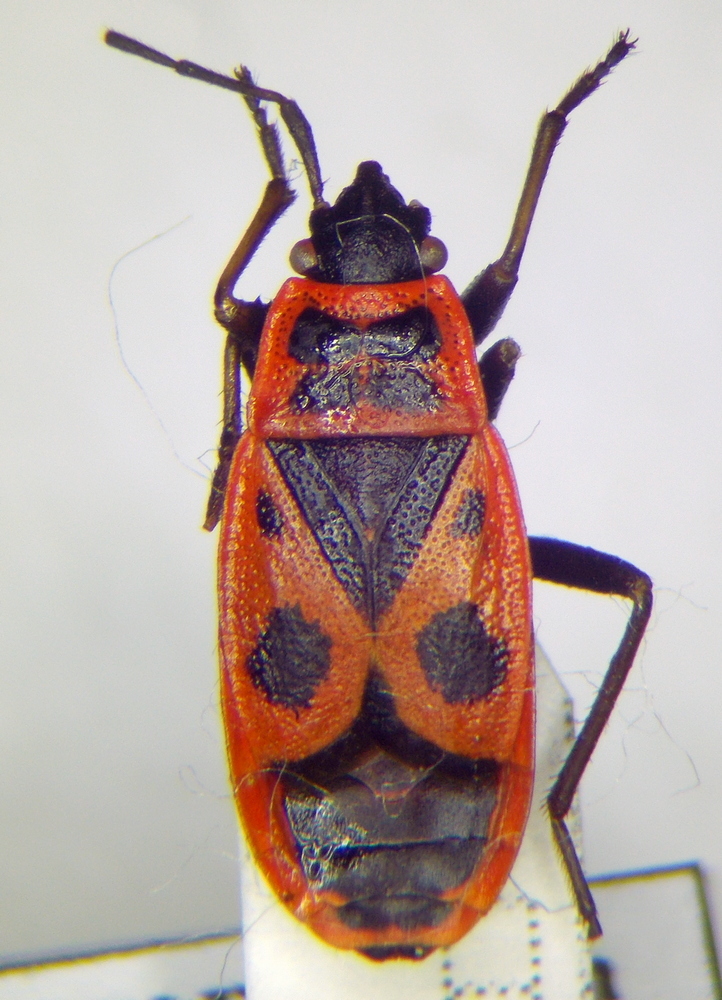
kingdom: Animalia
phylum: Arthropoda
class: Insecta
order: Hemiptera
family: Pyrrhocoridae
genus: Pyrrhocoris
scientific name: Pyrrhocoris apterus
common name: Firebug
